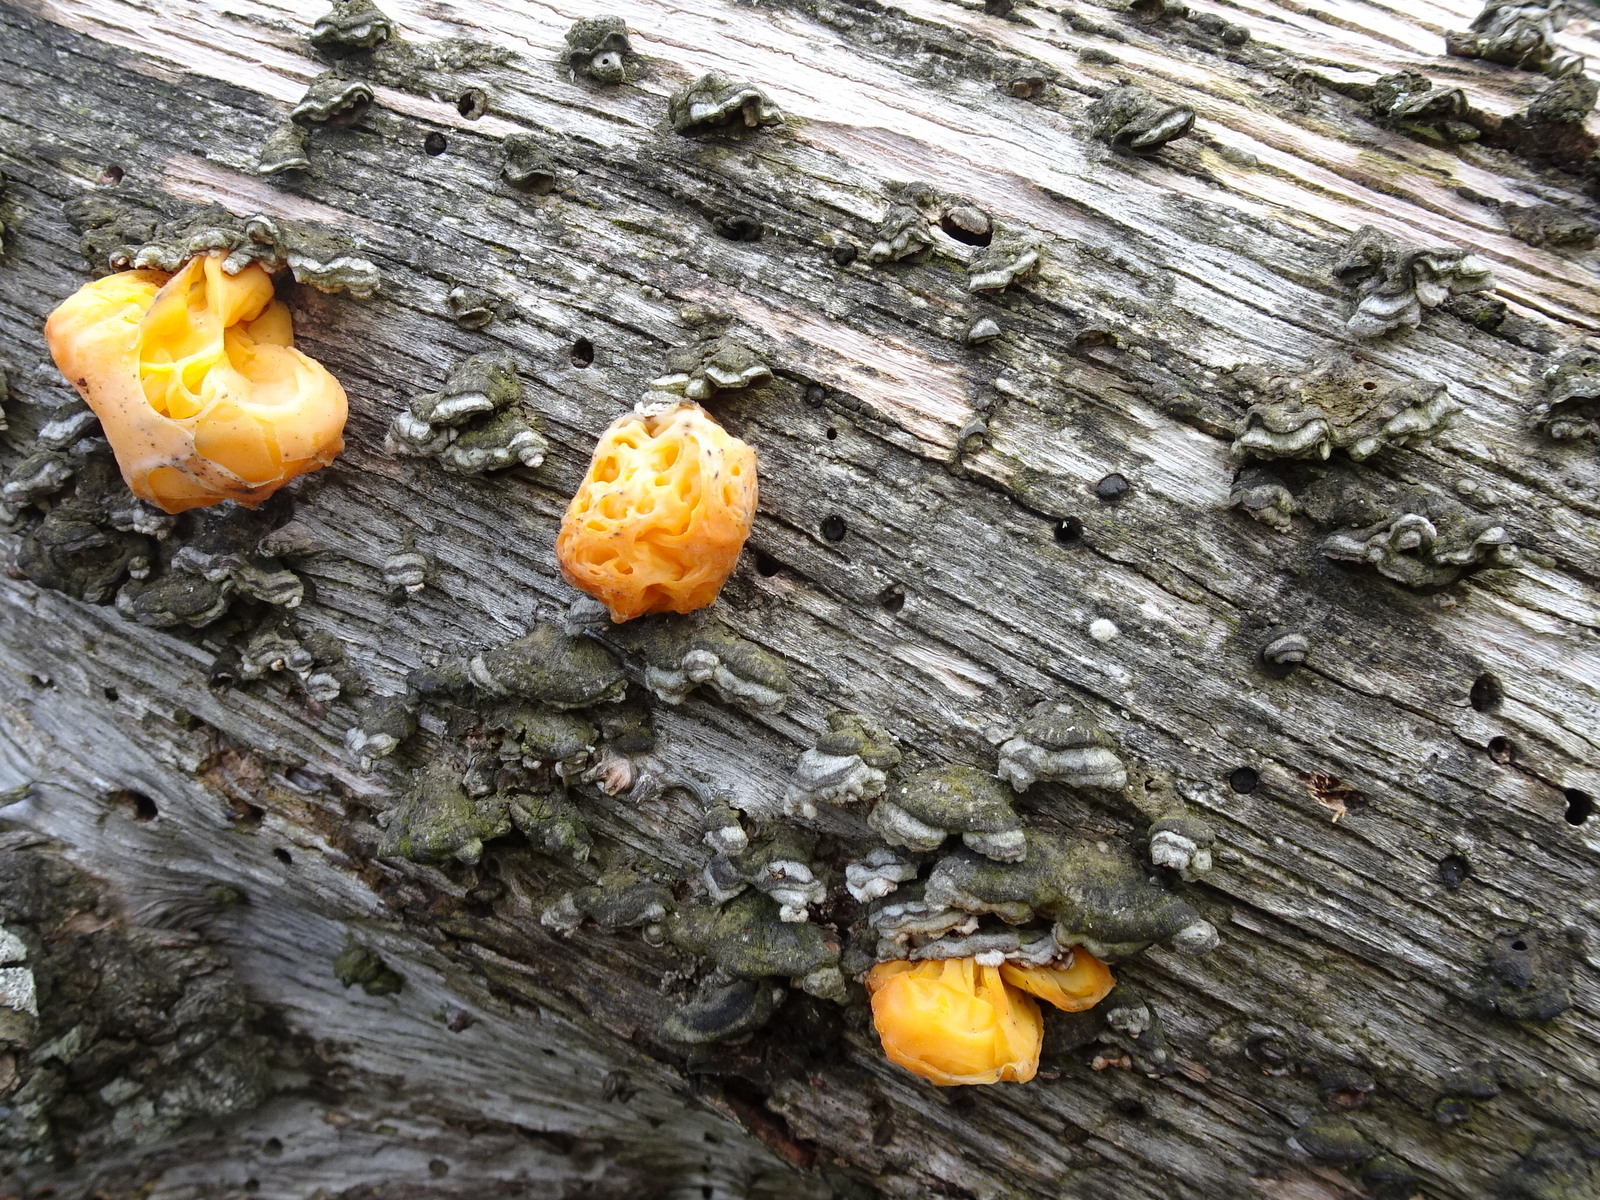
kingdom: Fungi
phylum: Basidiomycota
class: Tremellomycetes
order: Tremellales
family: Naemateliaceae
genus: Naematelia
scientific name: Naematelia aurantia
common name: Golden ear
